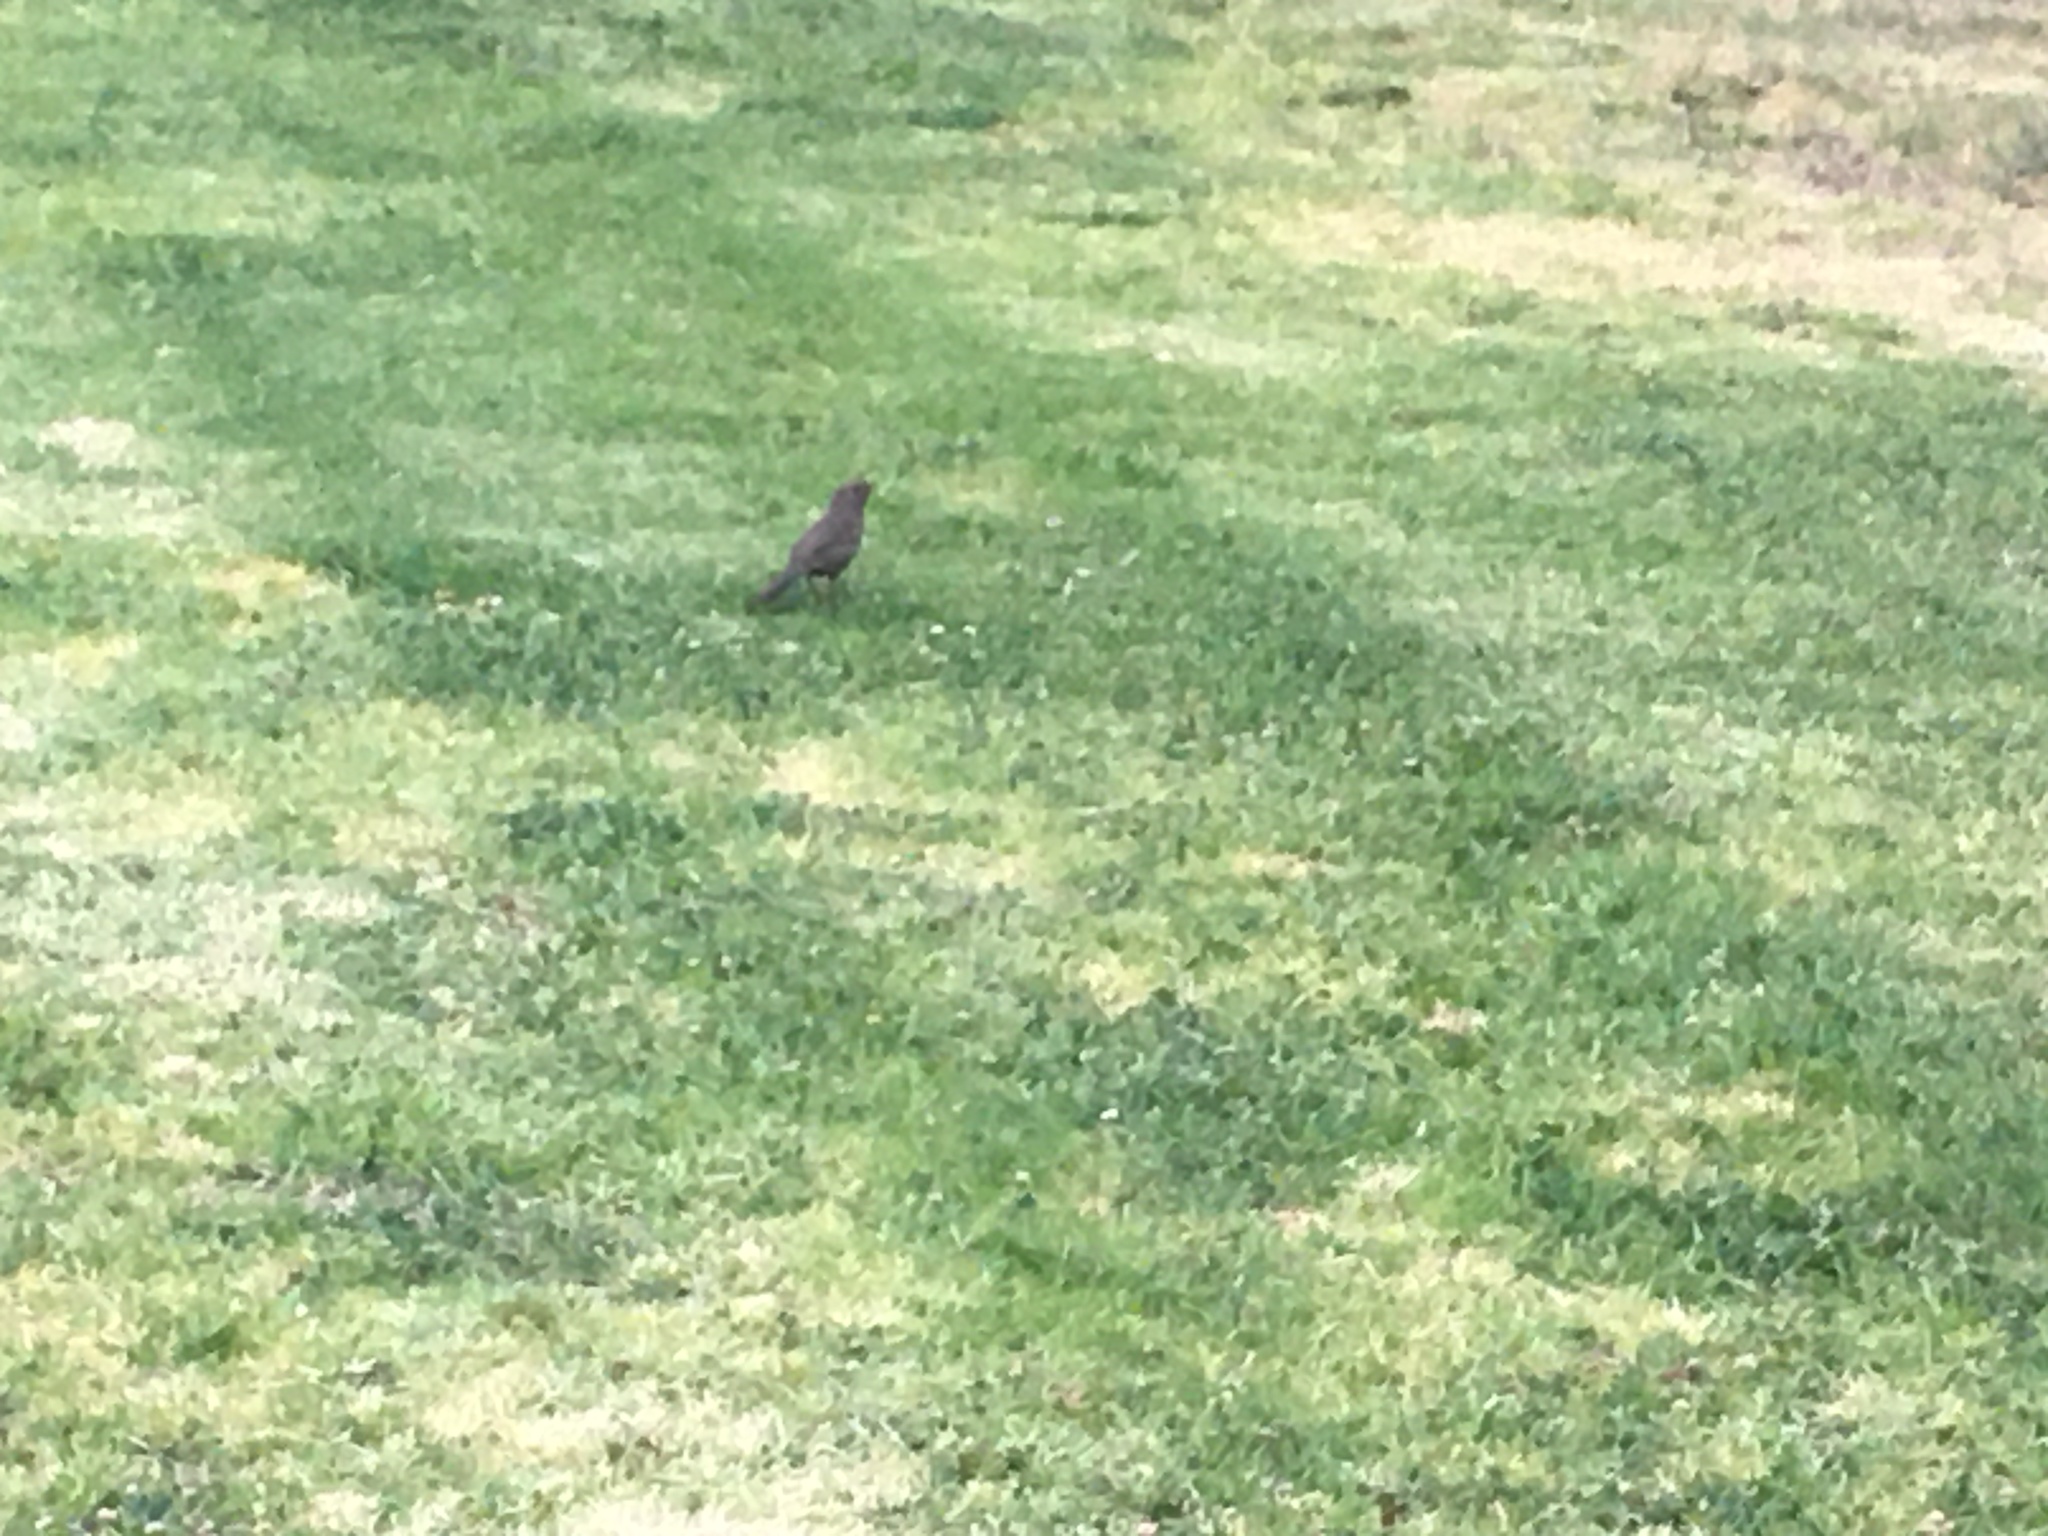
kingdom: Animalia
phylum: Chordata
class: Aves
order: Passeriformes
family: Passerellidae
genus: Melozone
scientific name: Melozone crissalis
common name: California towhee
